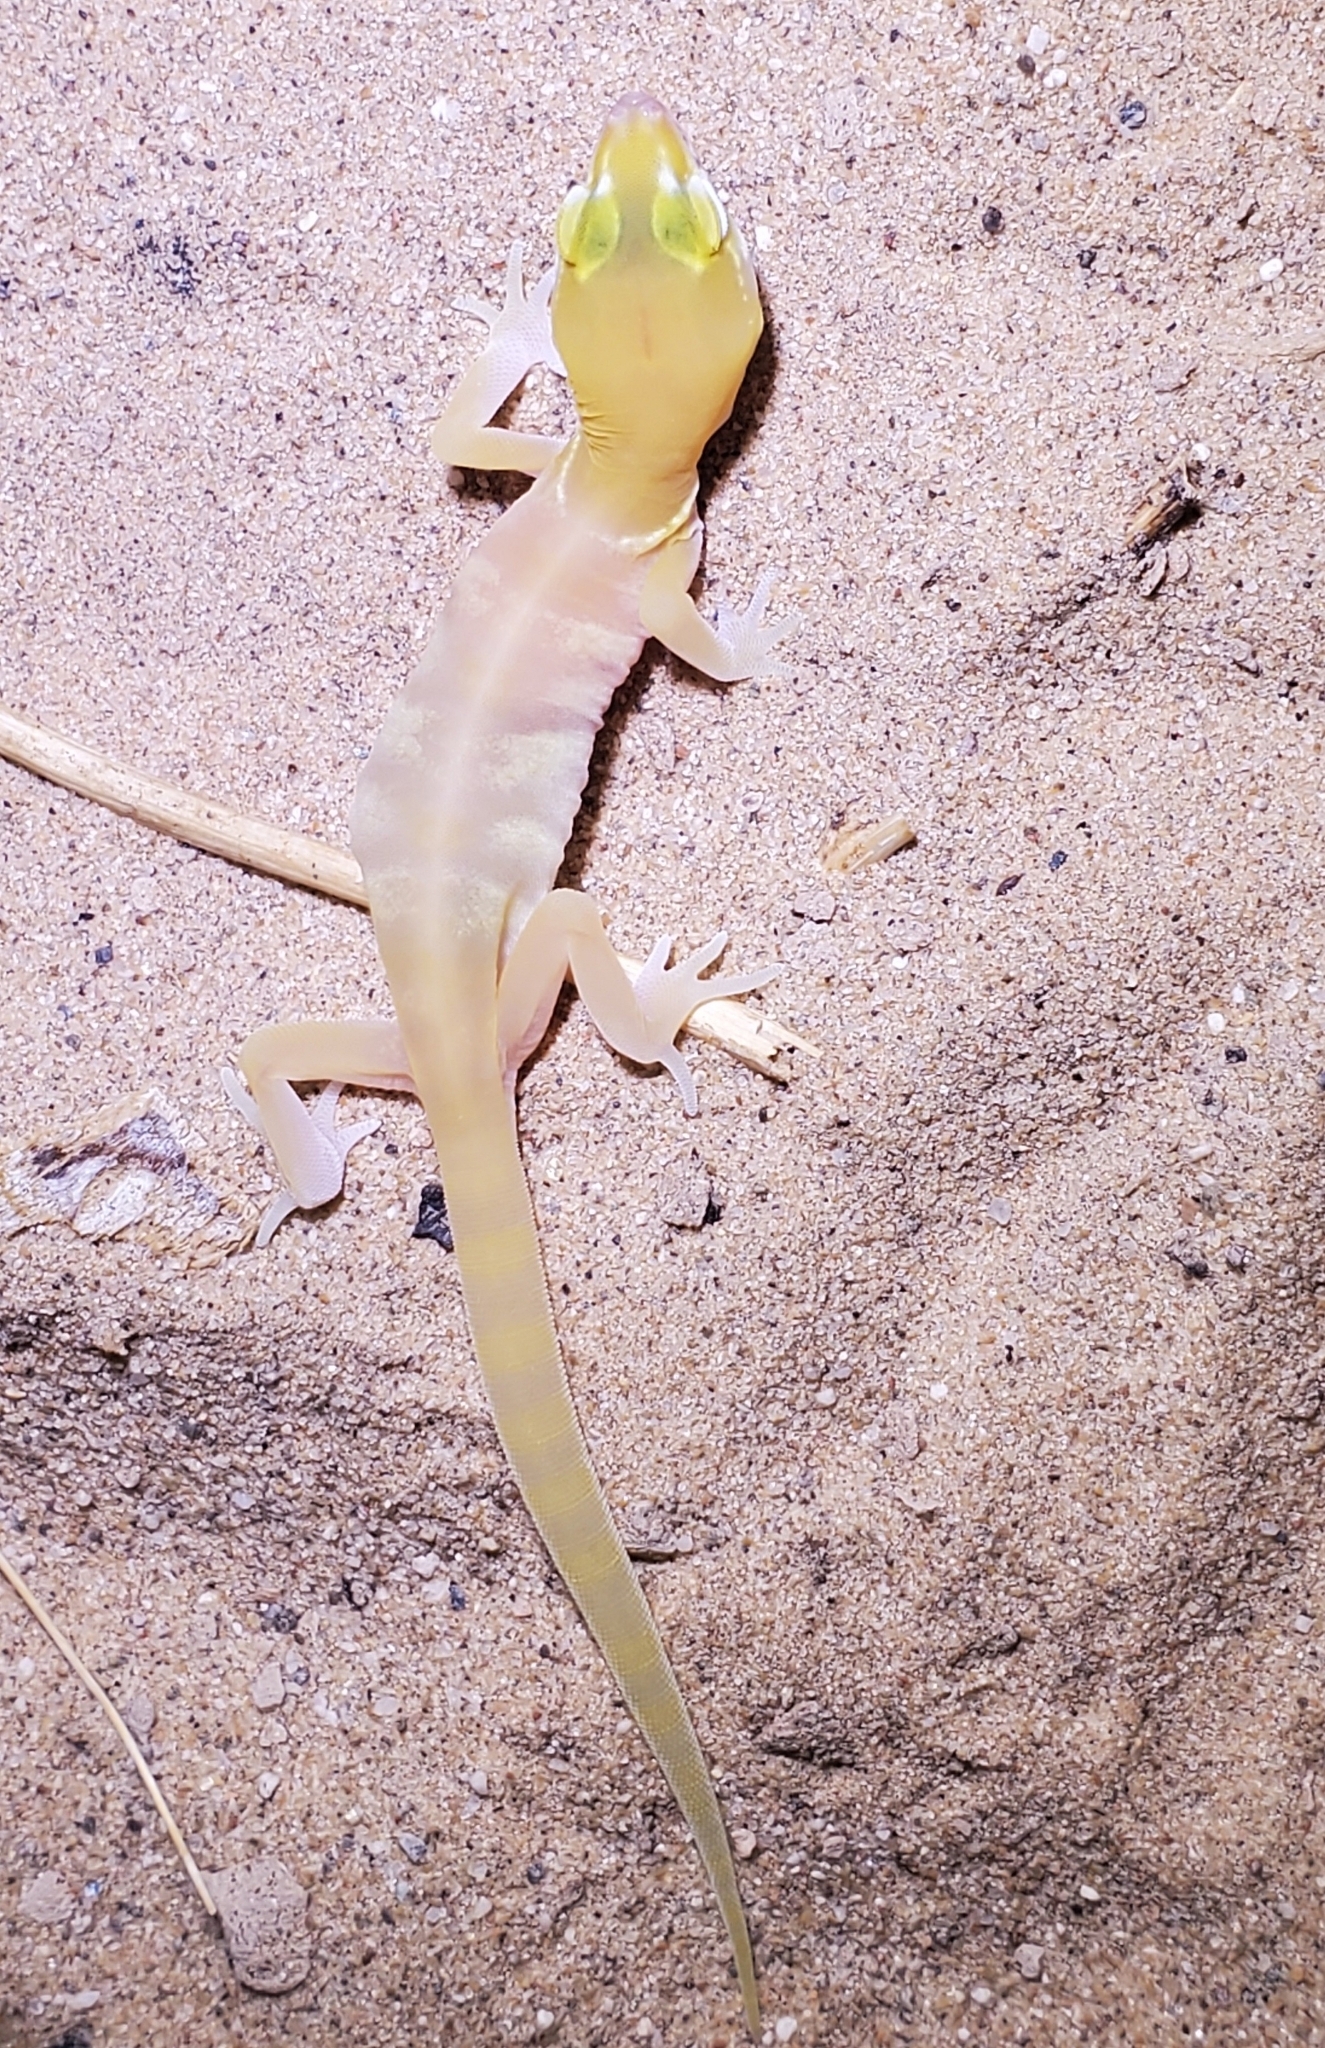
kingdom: Animalia
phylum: Chordata
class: Squamata
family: Eublepharidae
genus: Coleonyx
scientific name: Coleonyx variegatus
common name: Western banded gecko
